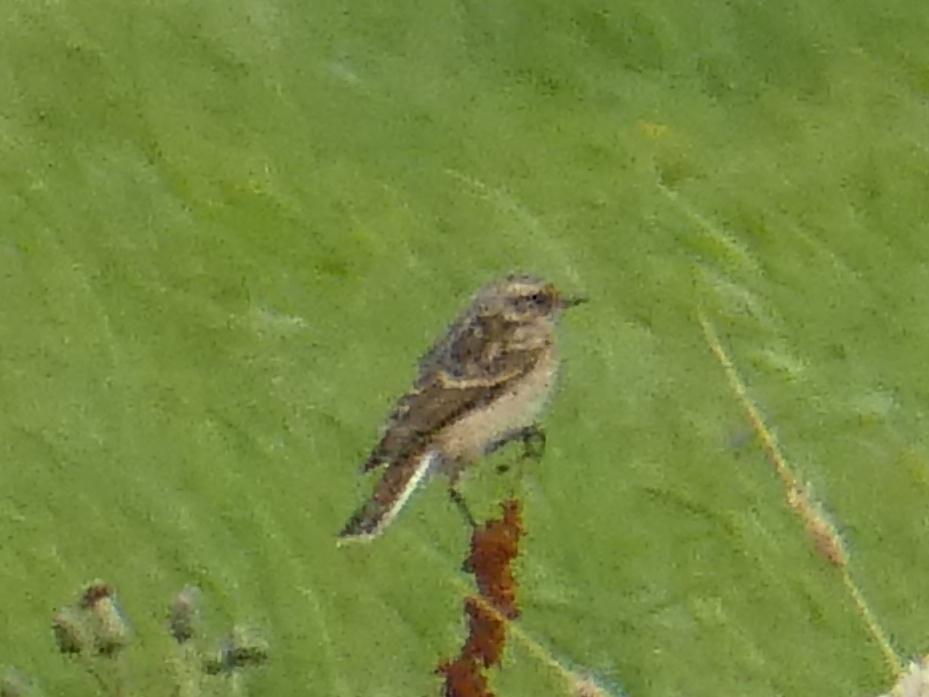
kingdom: Animalia
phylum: Chordata
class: Aves
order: Passeriformes
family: Muscicapidae
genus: Saxicola
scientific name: Saxicola rubetra
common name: Whinchat
